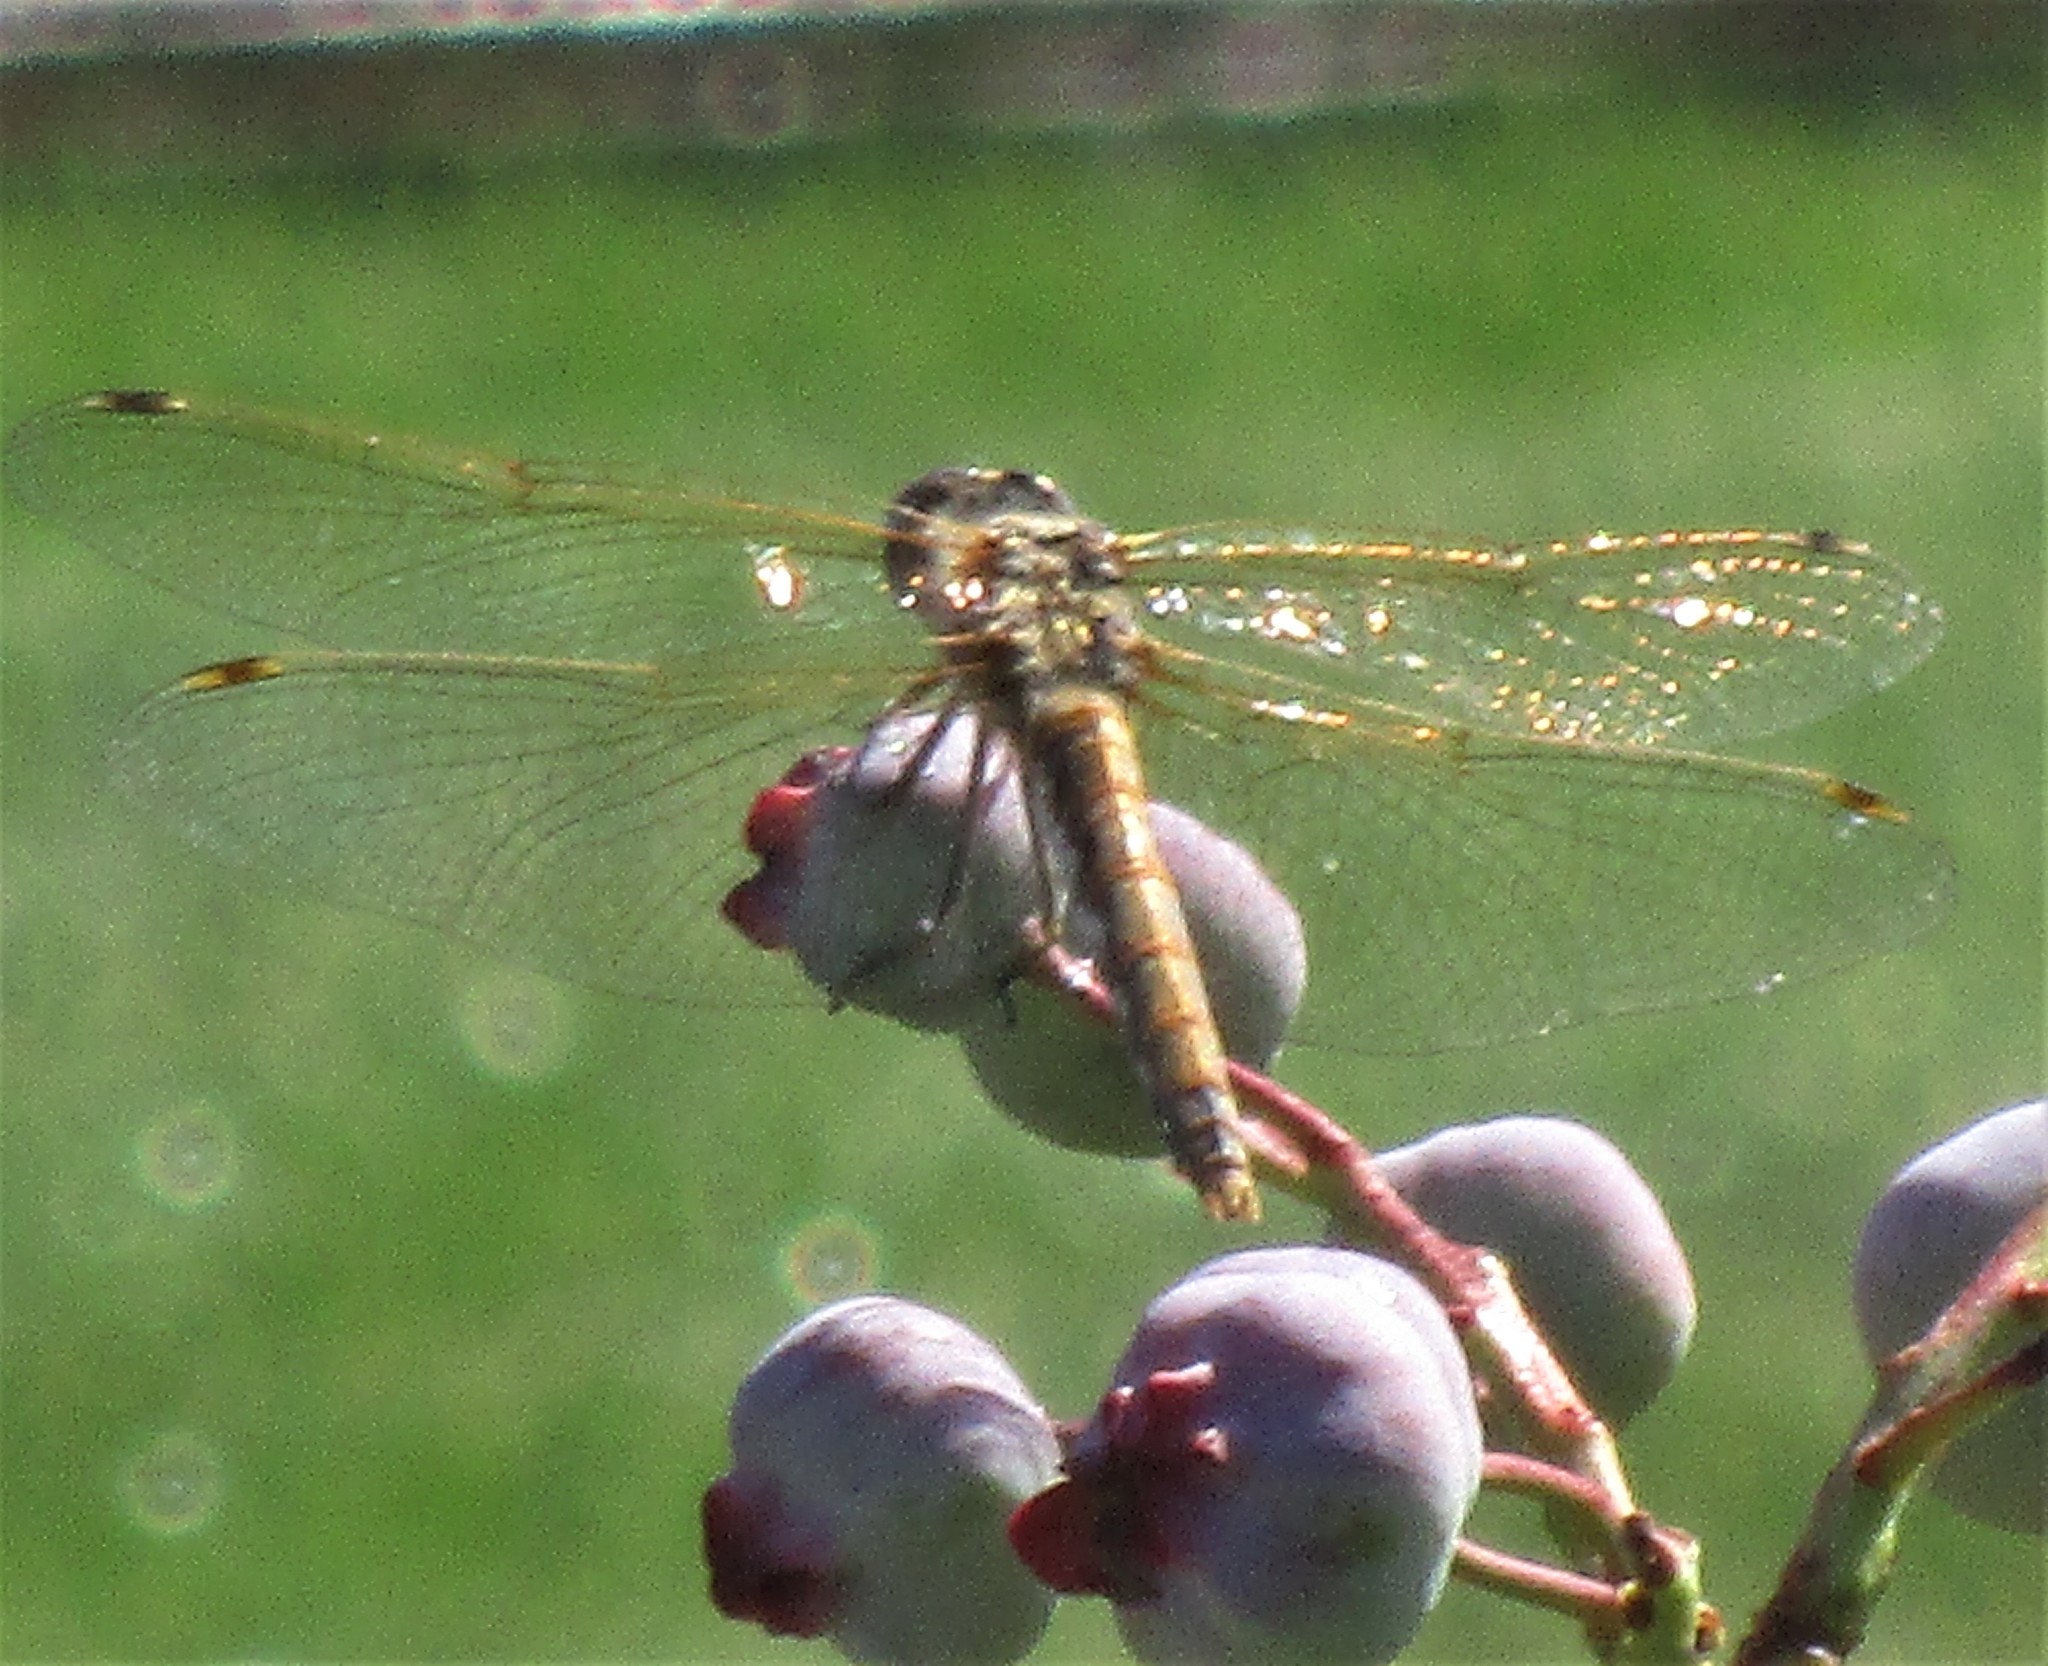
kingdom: Animalia
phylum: Arthropoda
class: Insecta
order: Odonata
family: Libellulidae
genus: Sympetrum
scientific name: Sympetrum corruptum
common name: Variegated meadowhawk
